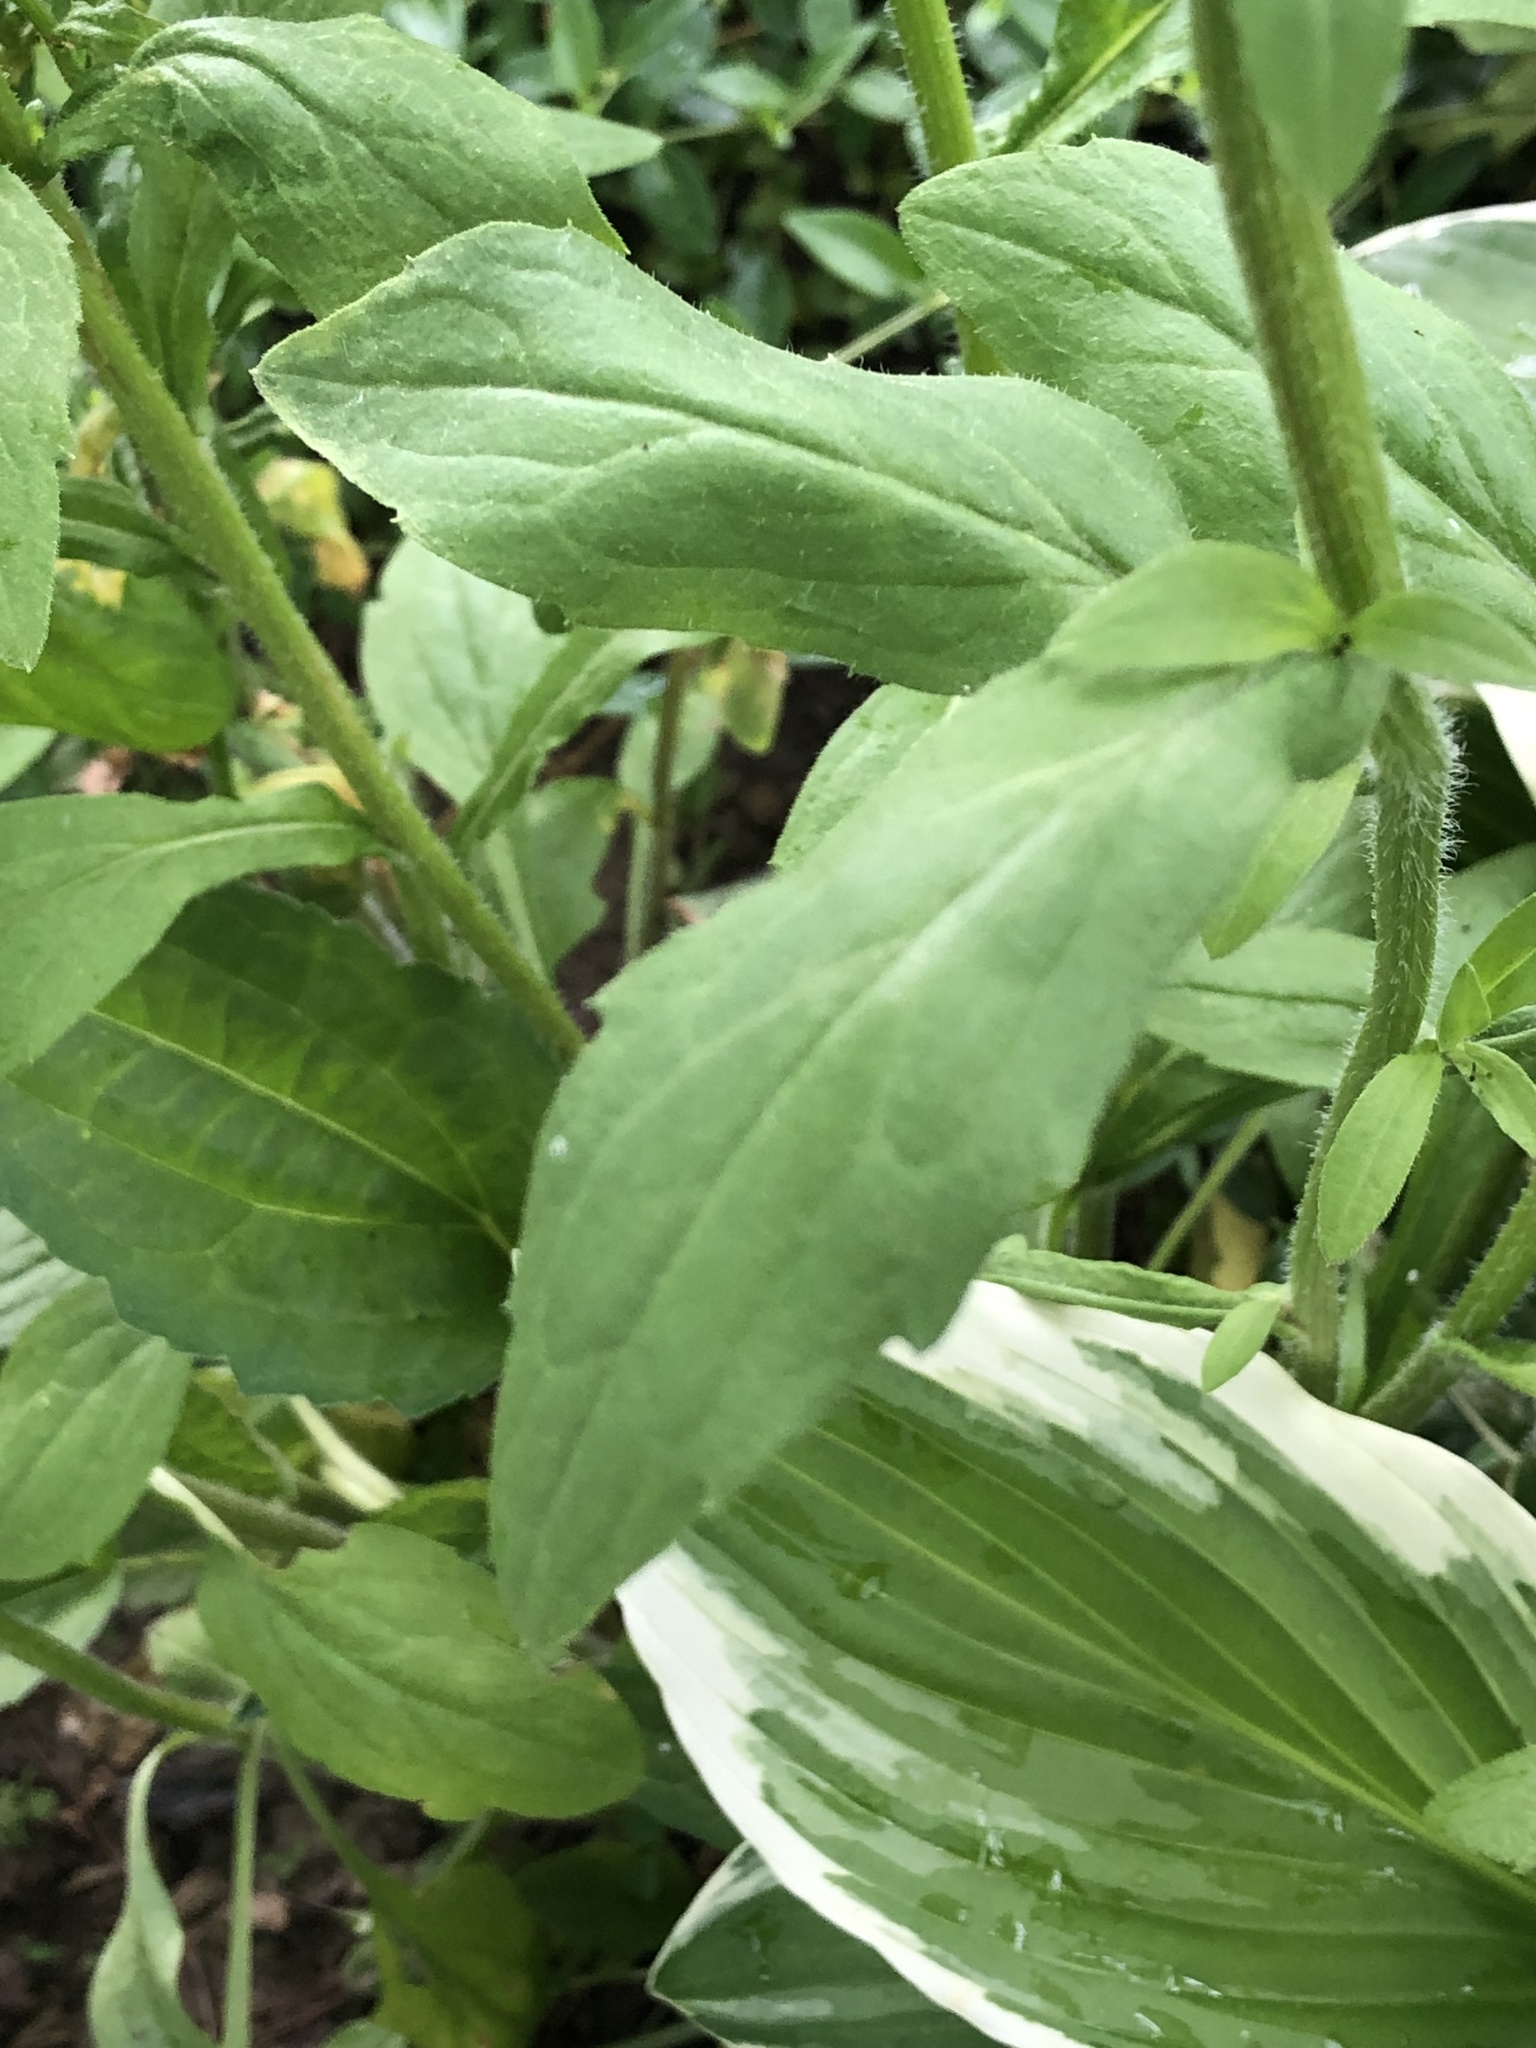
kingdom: Plantae
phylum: Tracheophyta
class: Magnoliopsida
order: Asterales
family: Asteraceae
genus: Erigeron
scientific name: Erigeron annuus
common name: Tall fleabane
